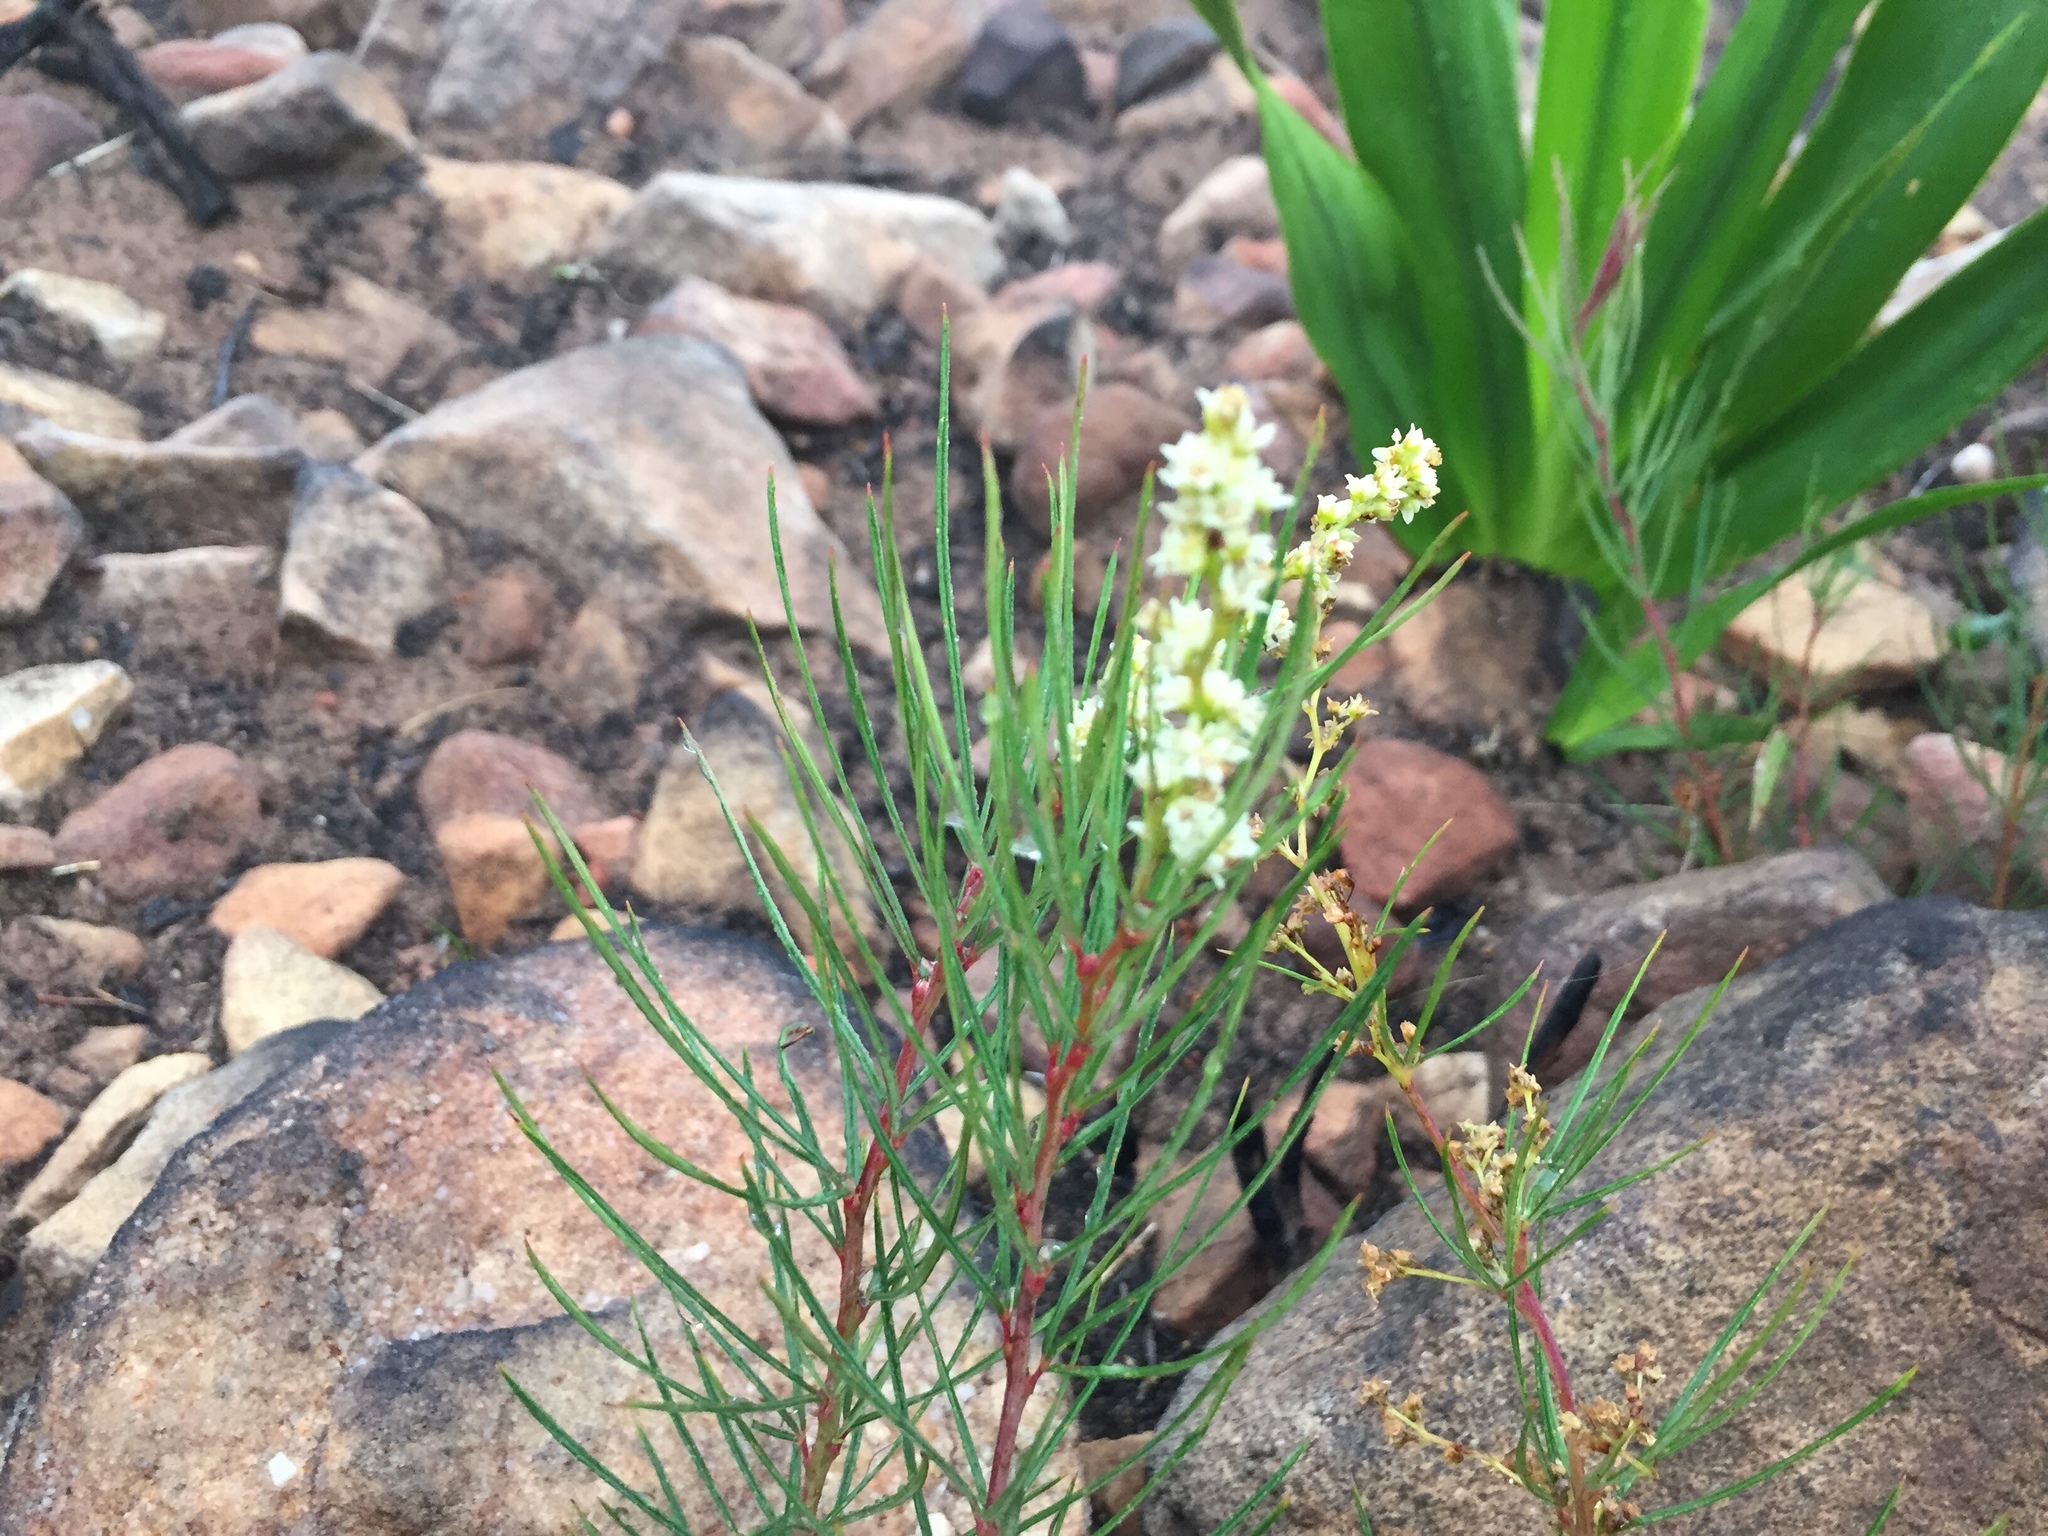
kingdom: Plantae
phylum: Tracheophyta
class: Magnoliopsida
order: Sapindales
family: Anacardiaceae
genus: Searsia
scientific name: Searsia rosmarinifolia
